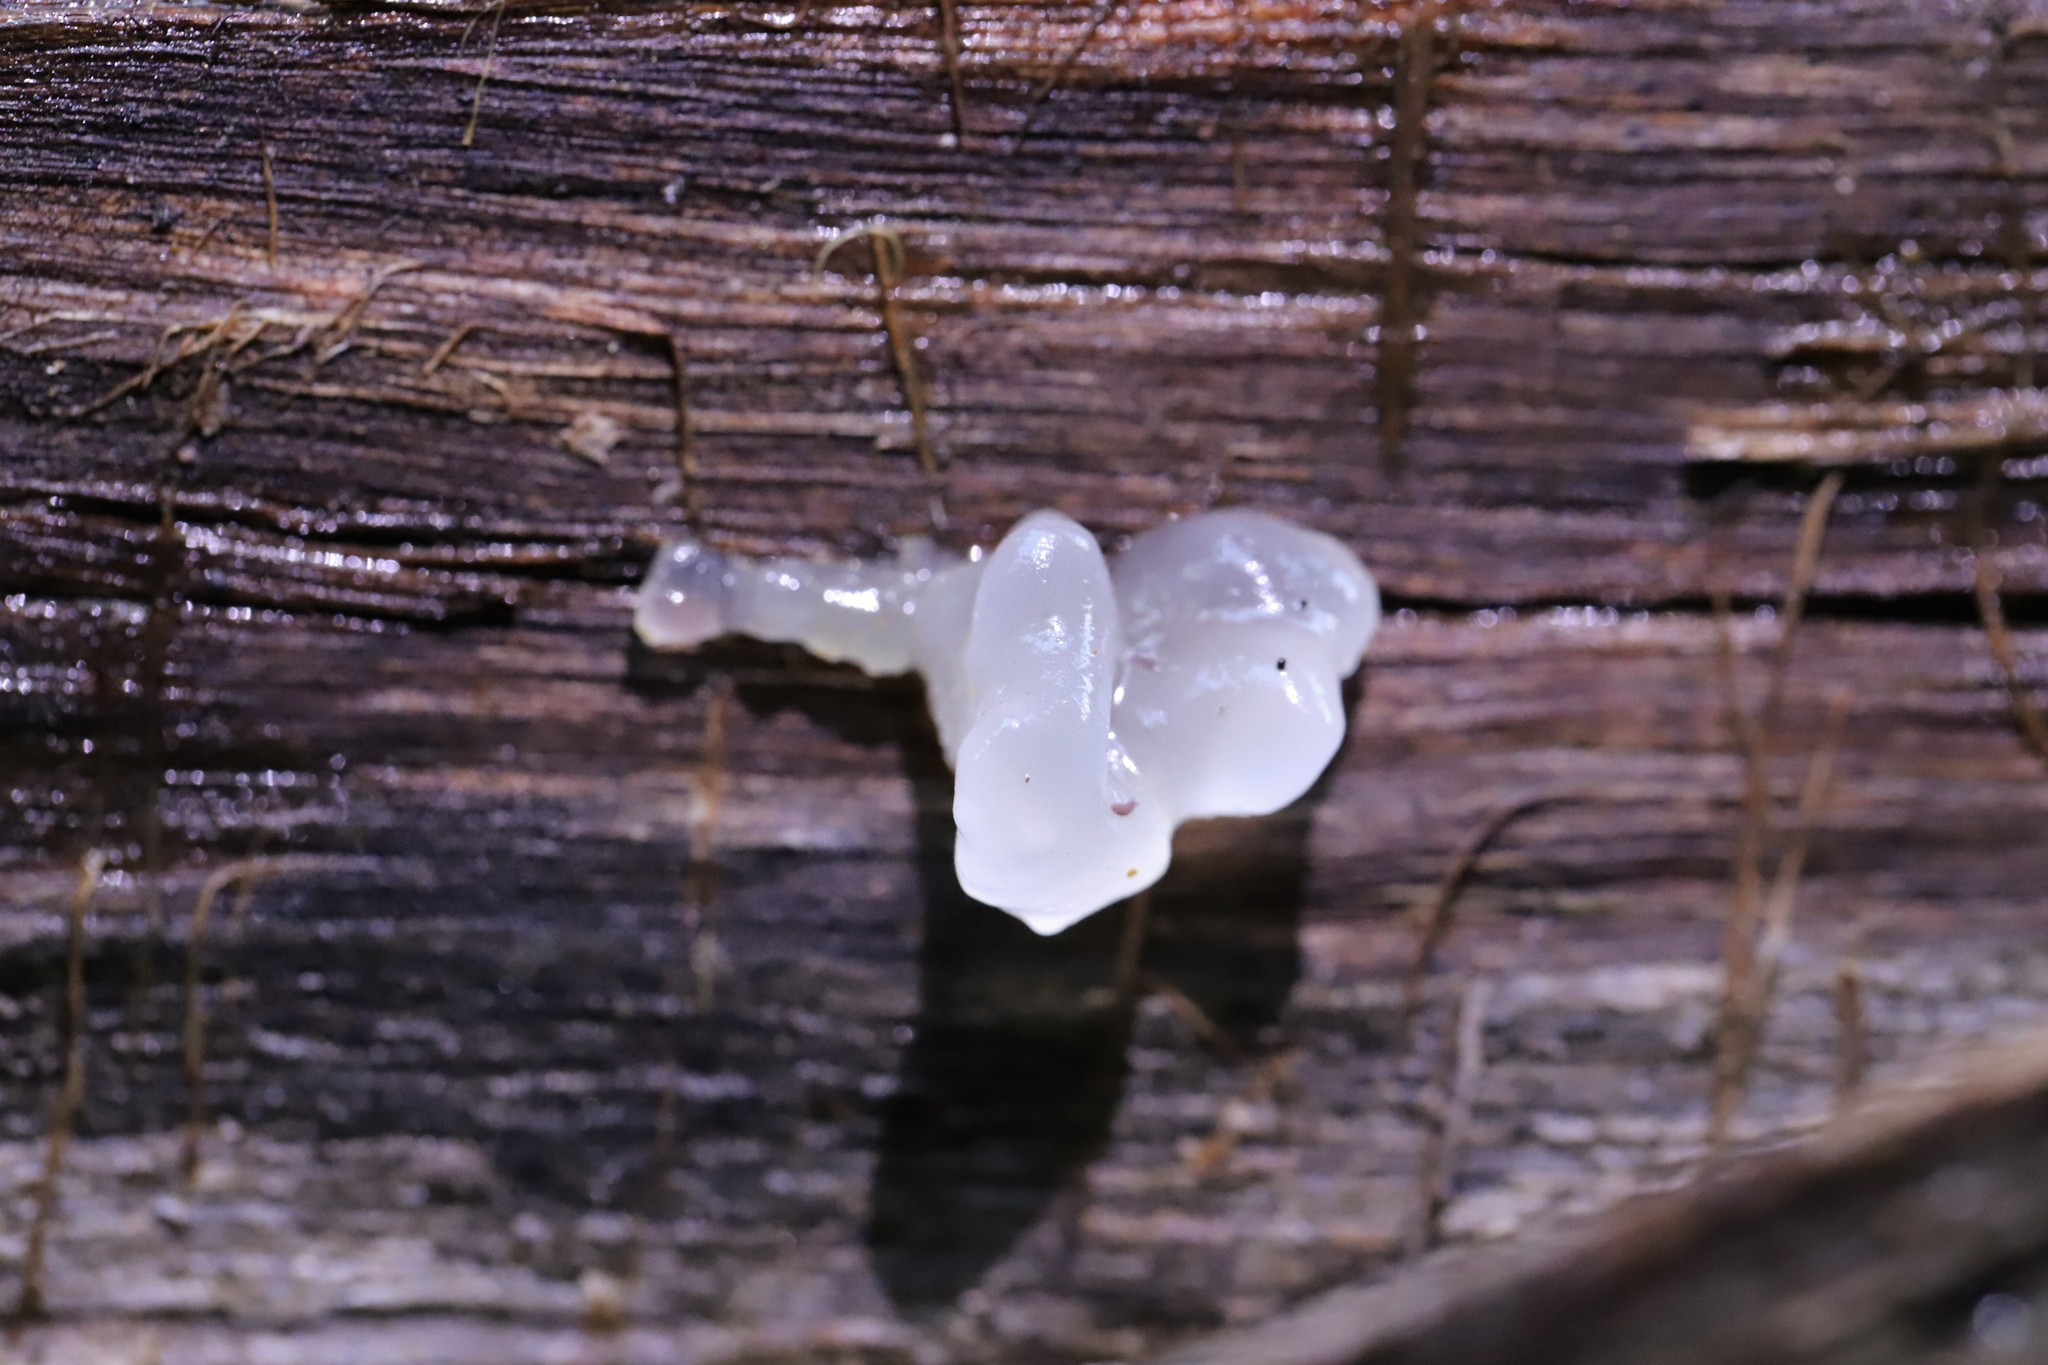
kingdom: Fungi
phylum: Basidiomycota
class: Tremellomycetes
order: Tremellales
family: Tremellaceae
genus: Tremella
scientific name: Tremella fuciformis
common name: Snow fungus
